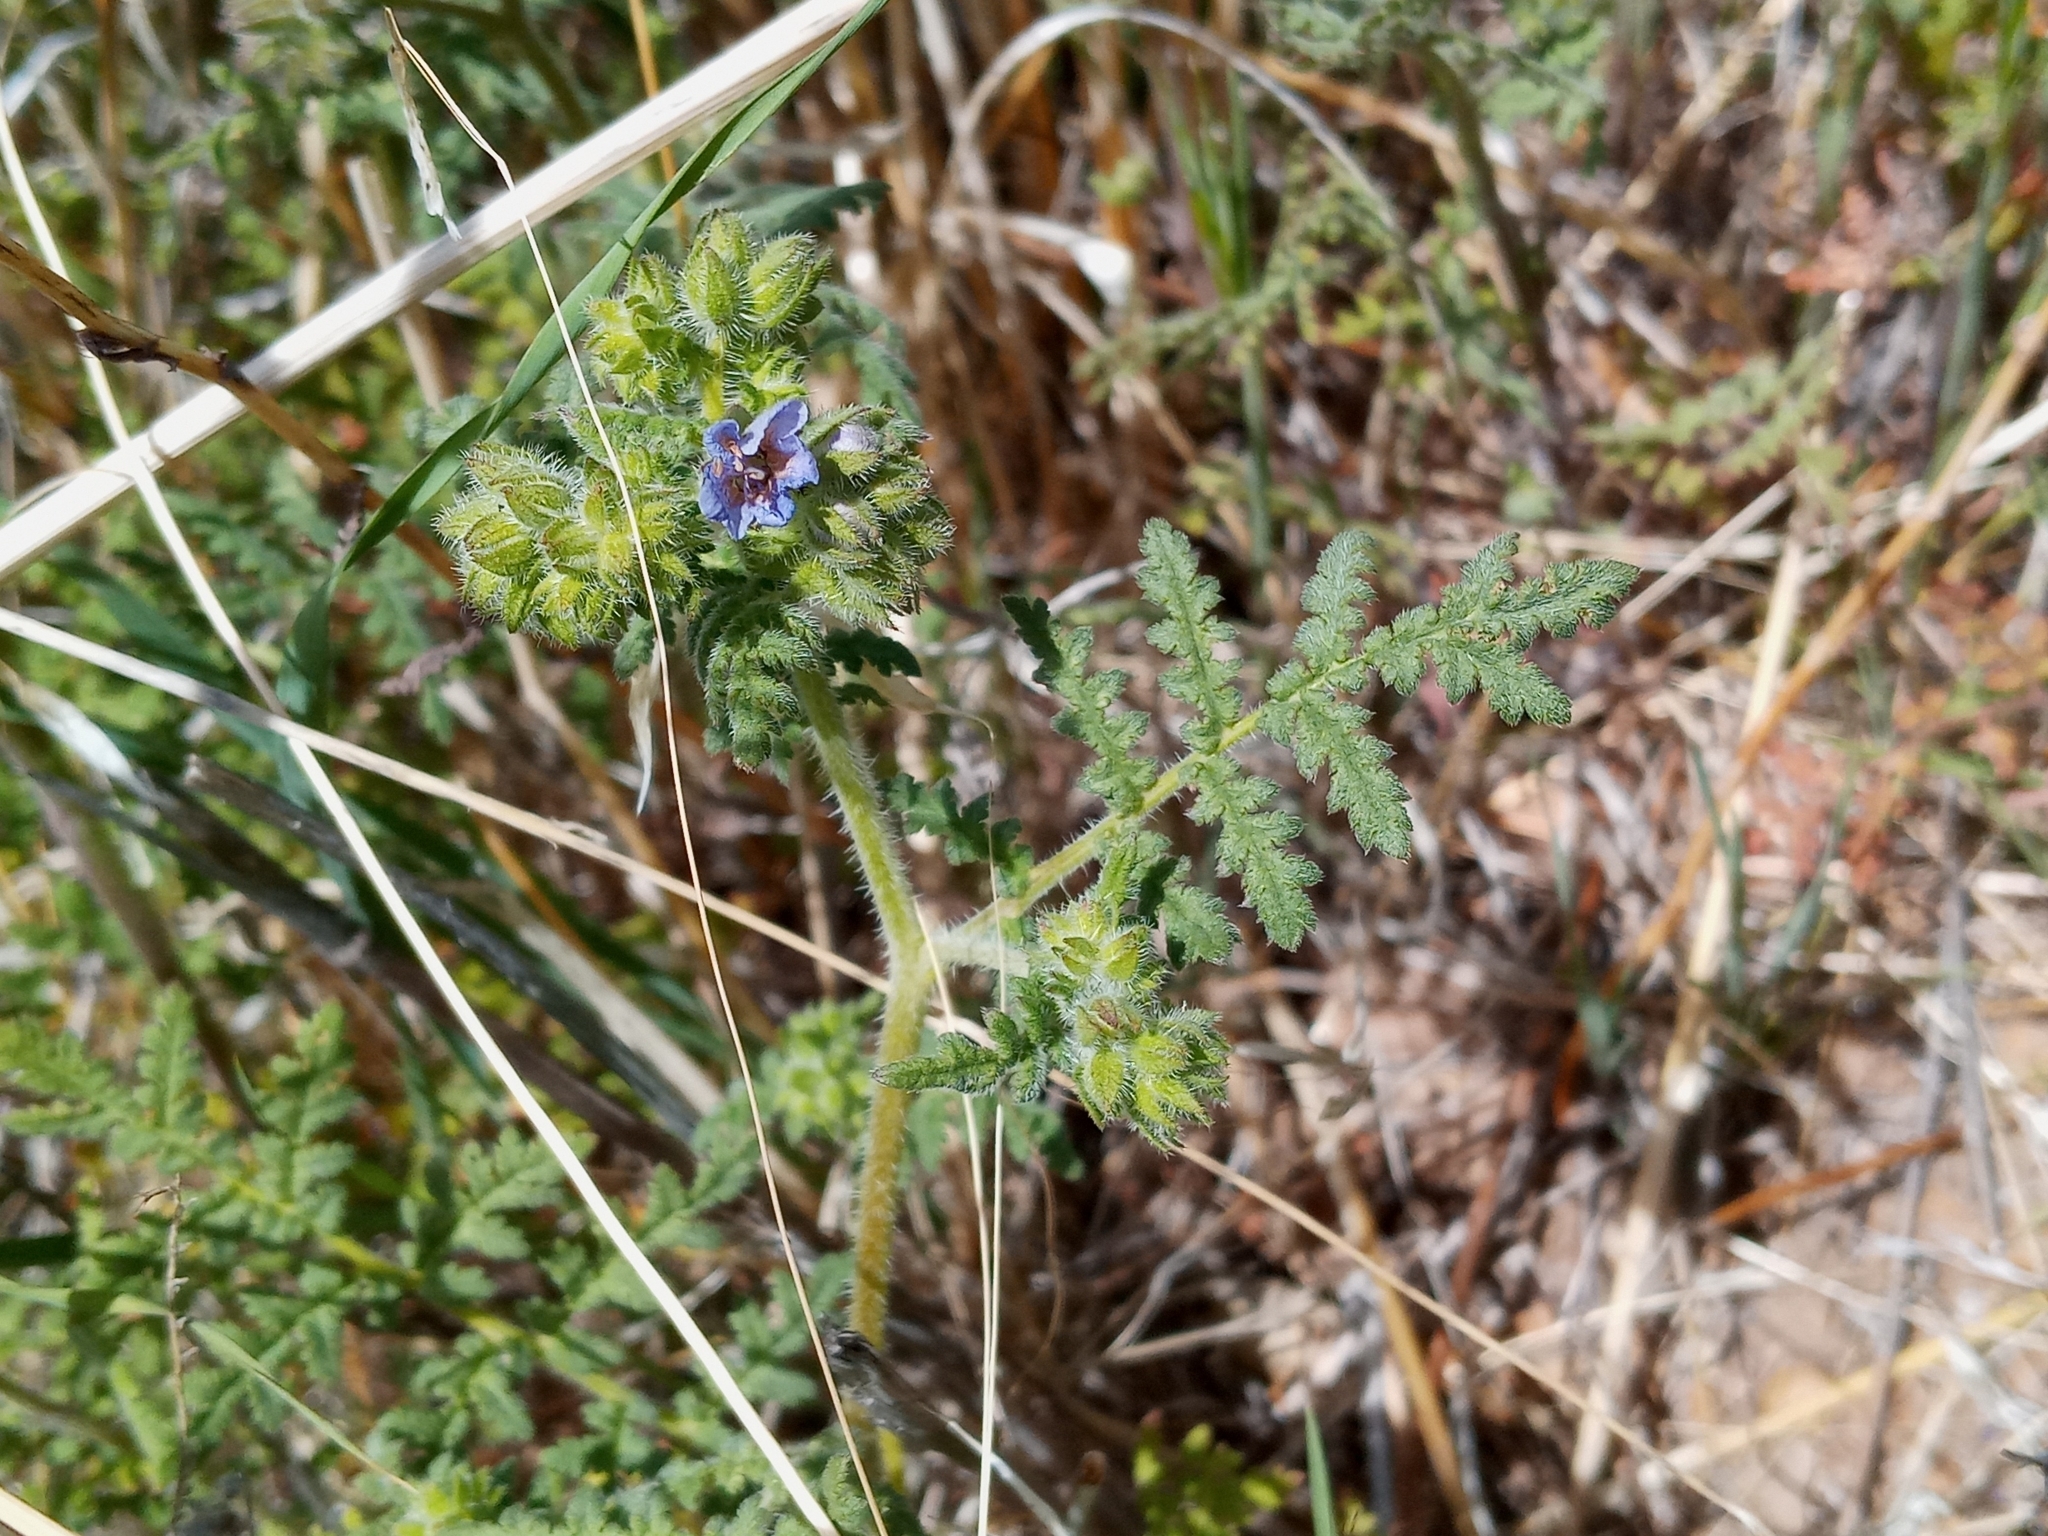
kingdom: Plantae
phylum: Tracheophyta
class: Magnoliopsida
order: Boraginales
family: Hydrophyllaceae
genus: Phacelia
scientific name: Phacelia distans
